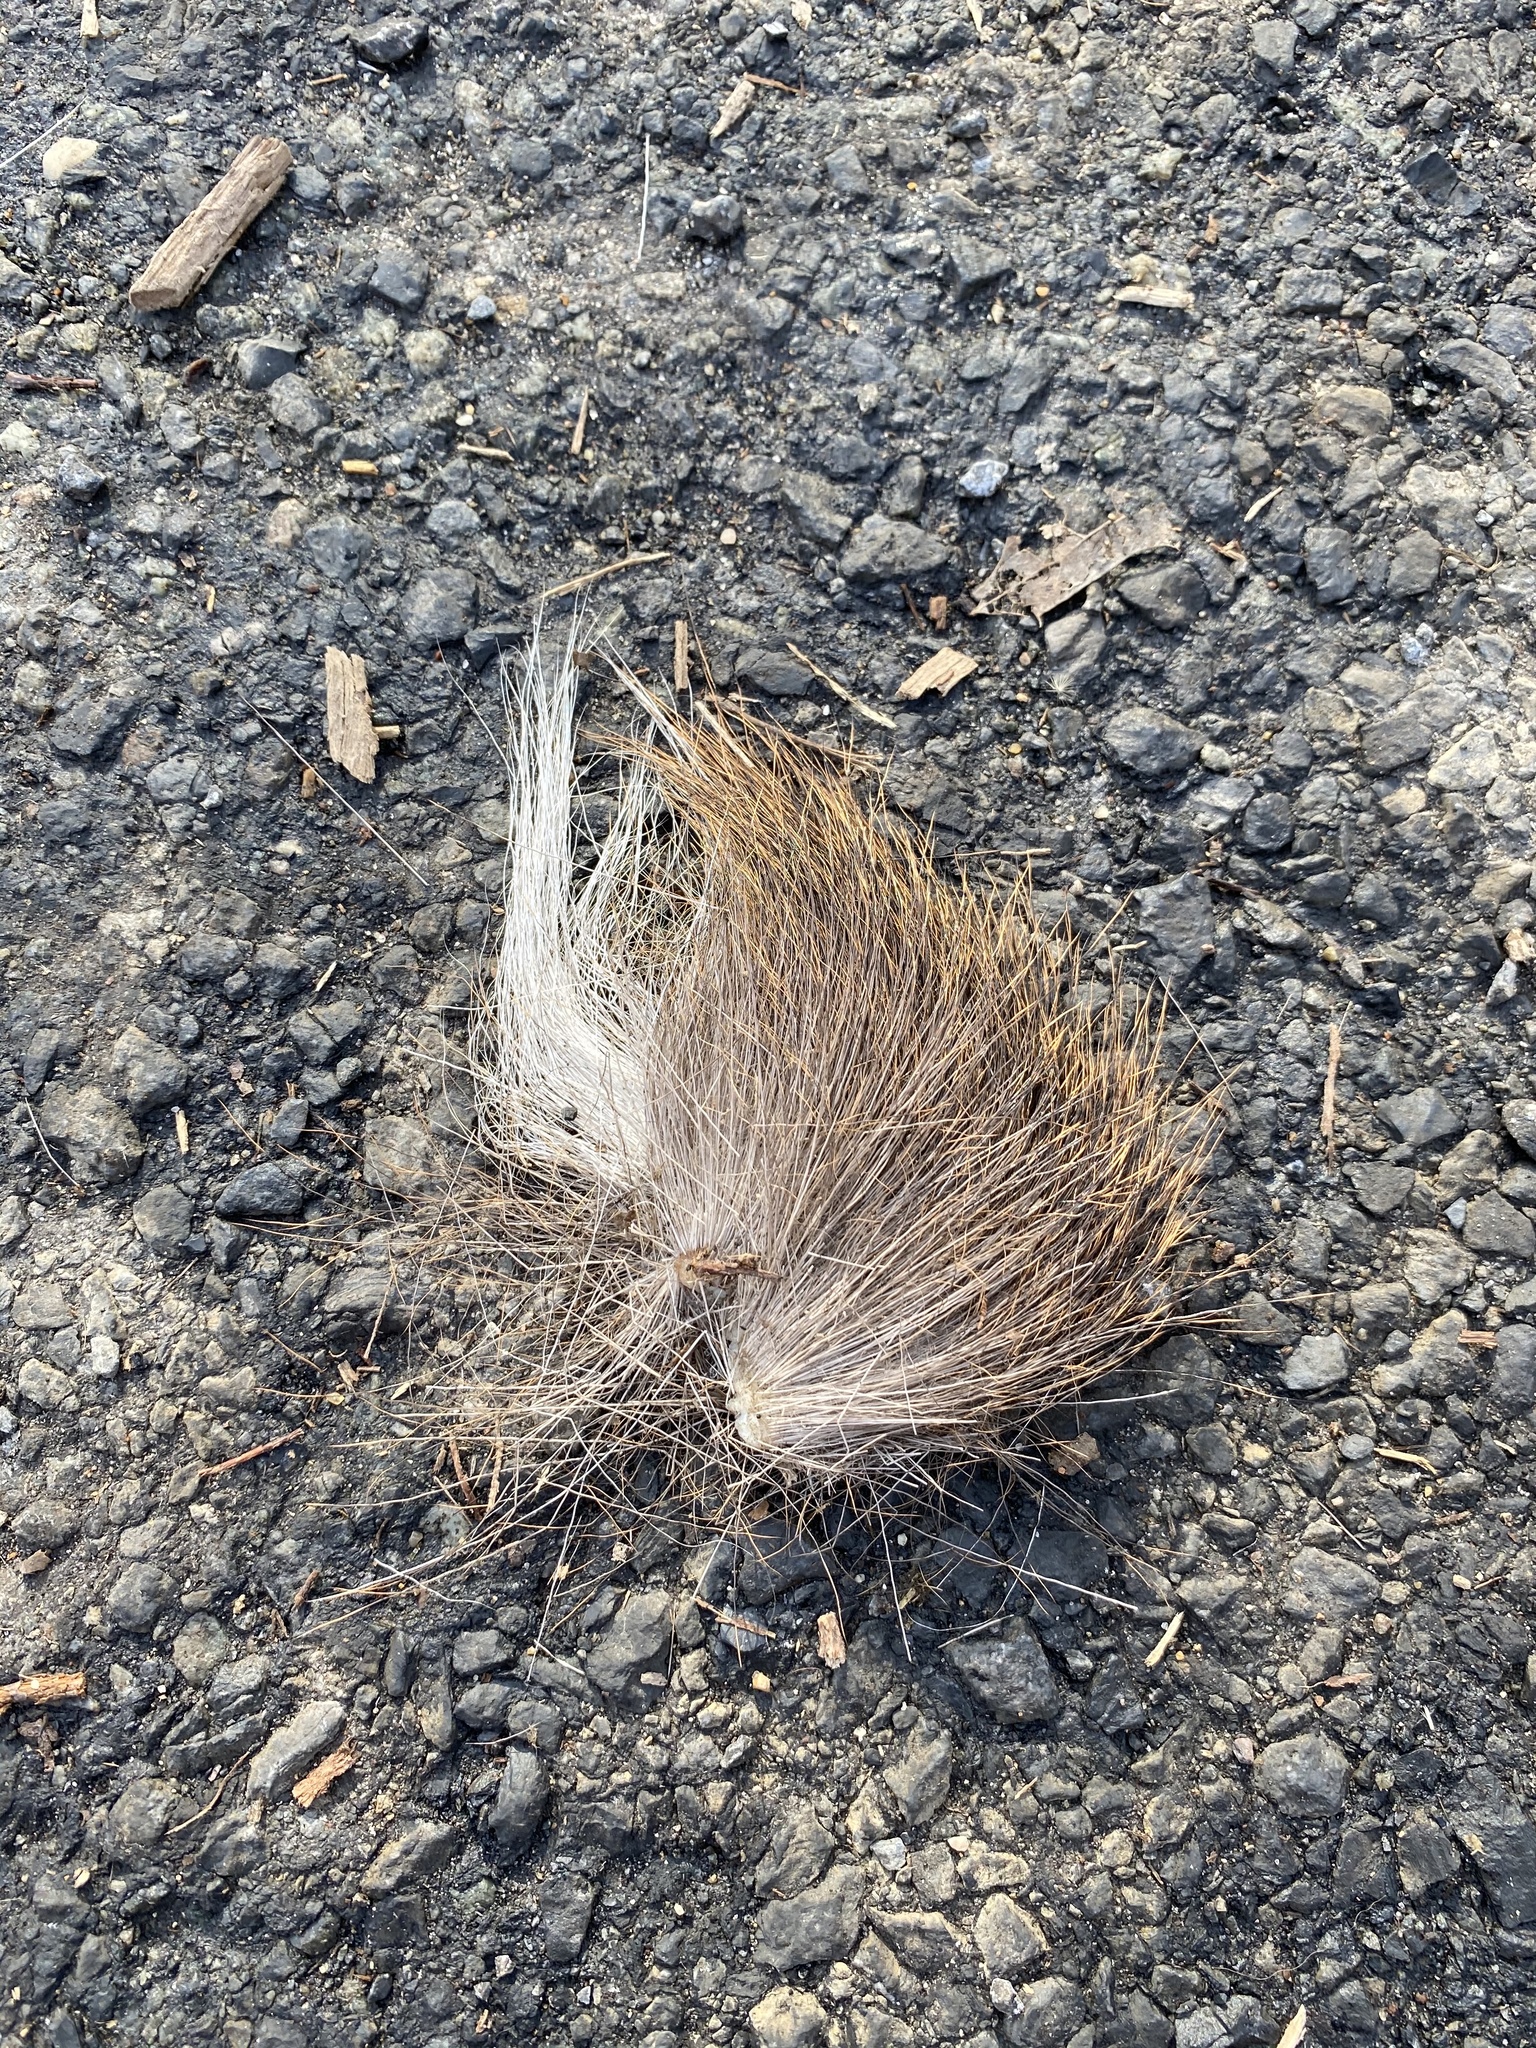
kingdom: Animalia
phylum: Chordata
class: Mammalia
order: Artiodactyla
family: Cervidae
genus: Odocoileus
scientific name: Odocoileus virginianus
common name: White-tailed deer
